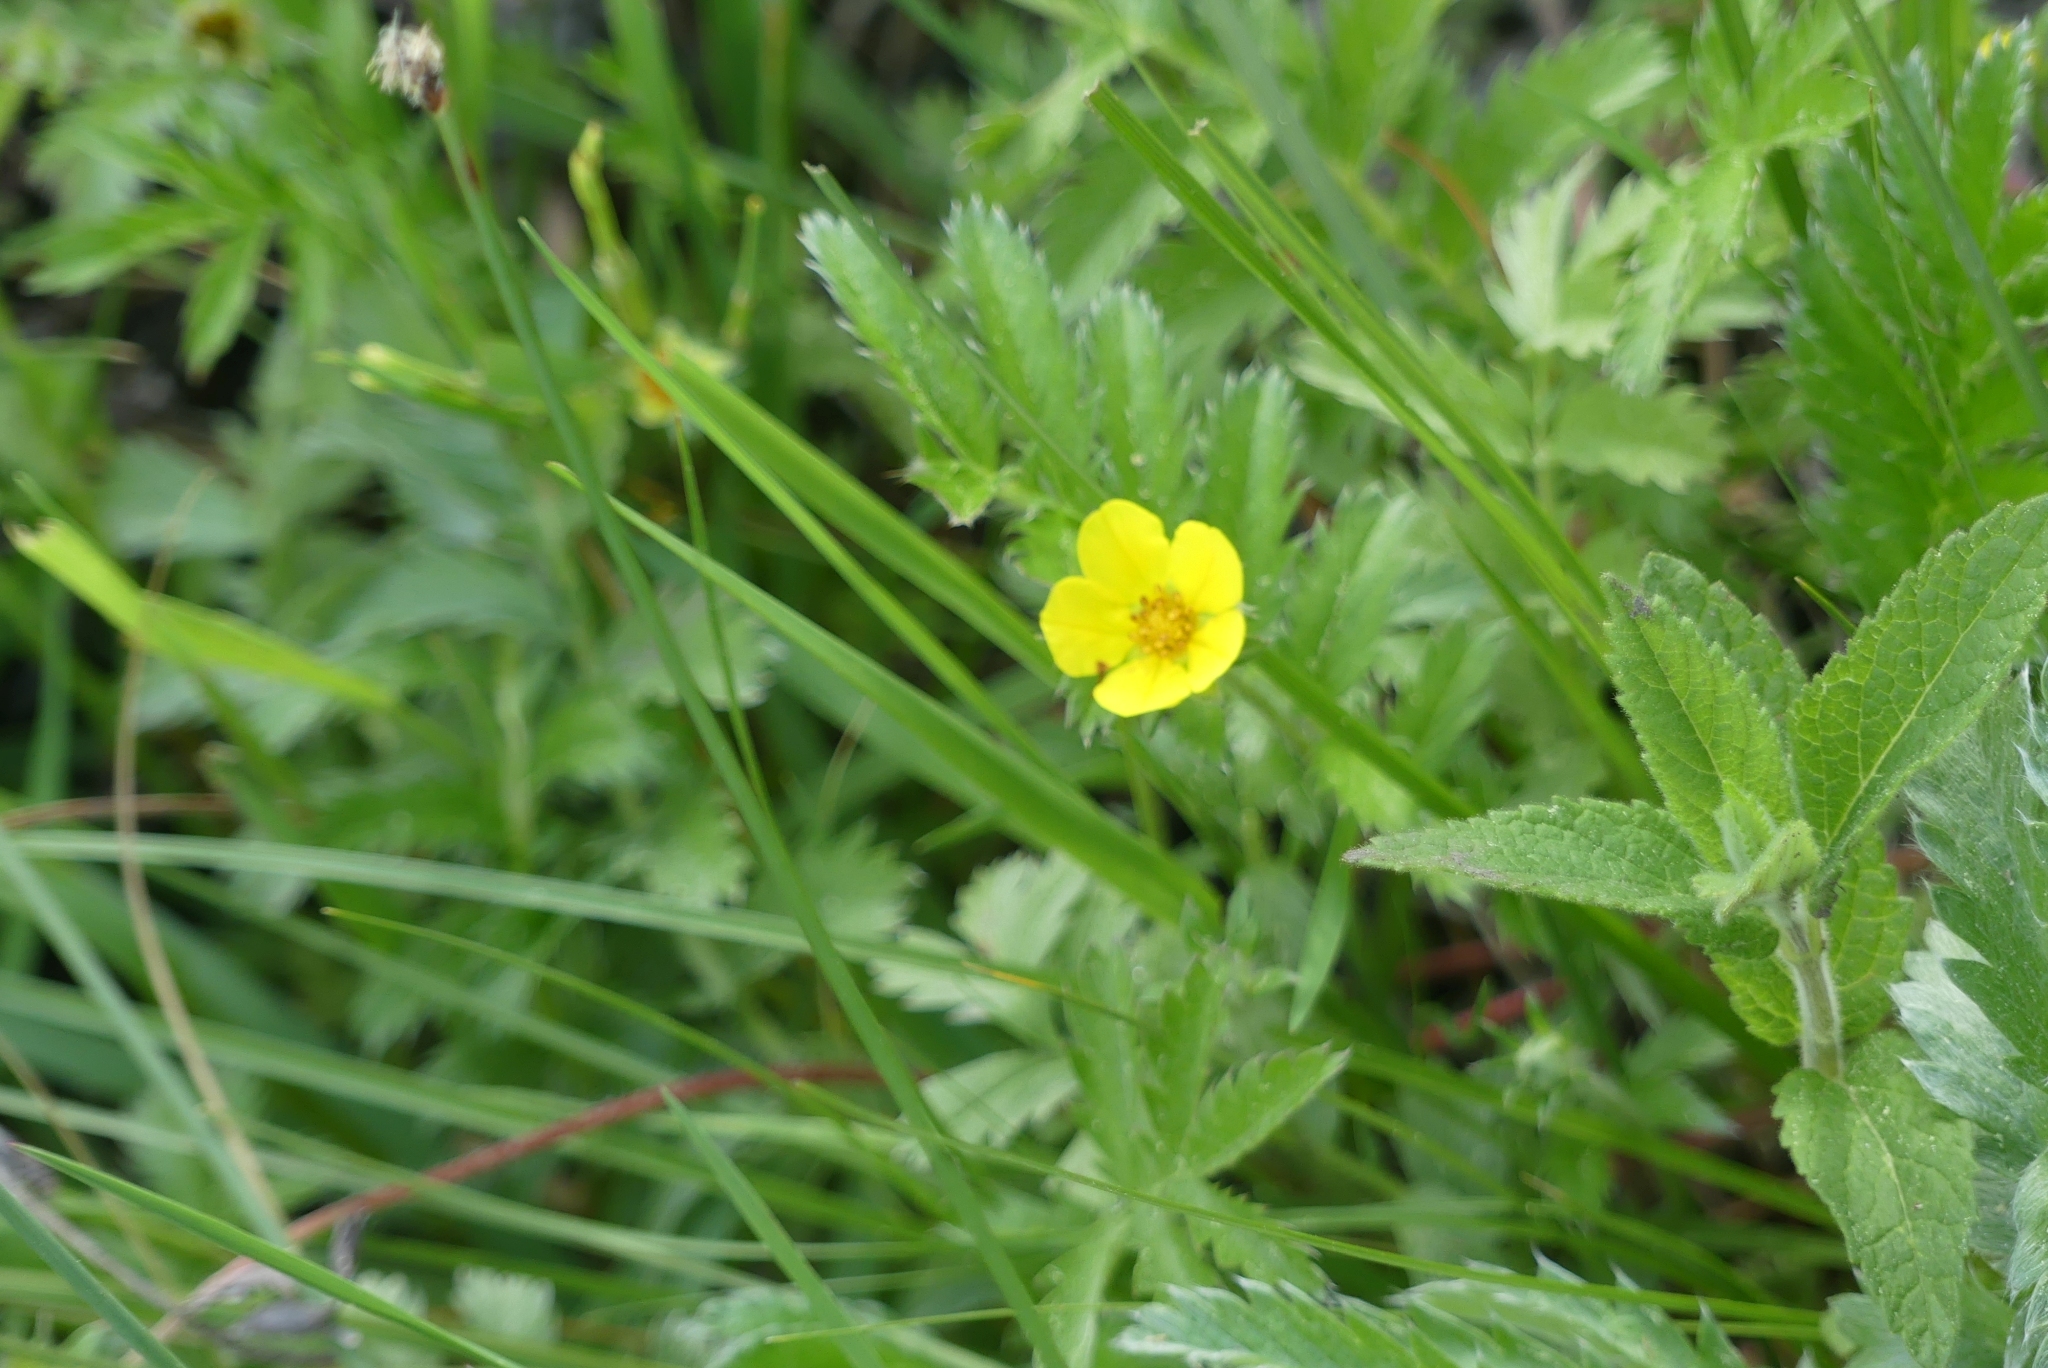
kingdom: Plantae
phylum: Tracheophyta
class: Magnoliopsida
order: Rosales
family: Rosaceae
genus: Argentina
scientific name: Argentina anserina
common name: Common silverweed
